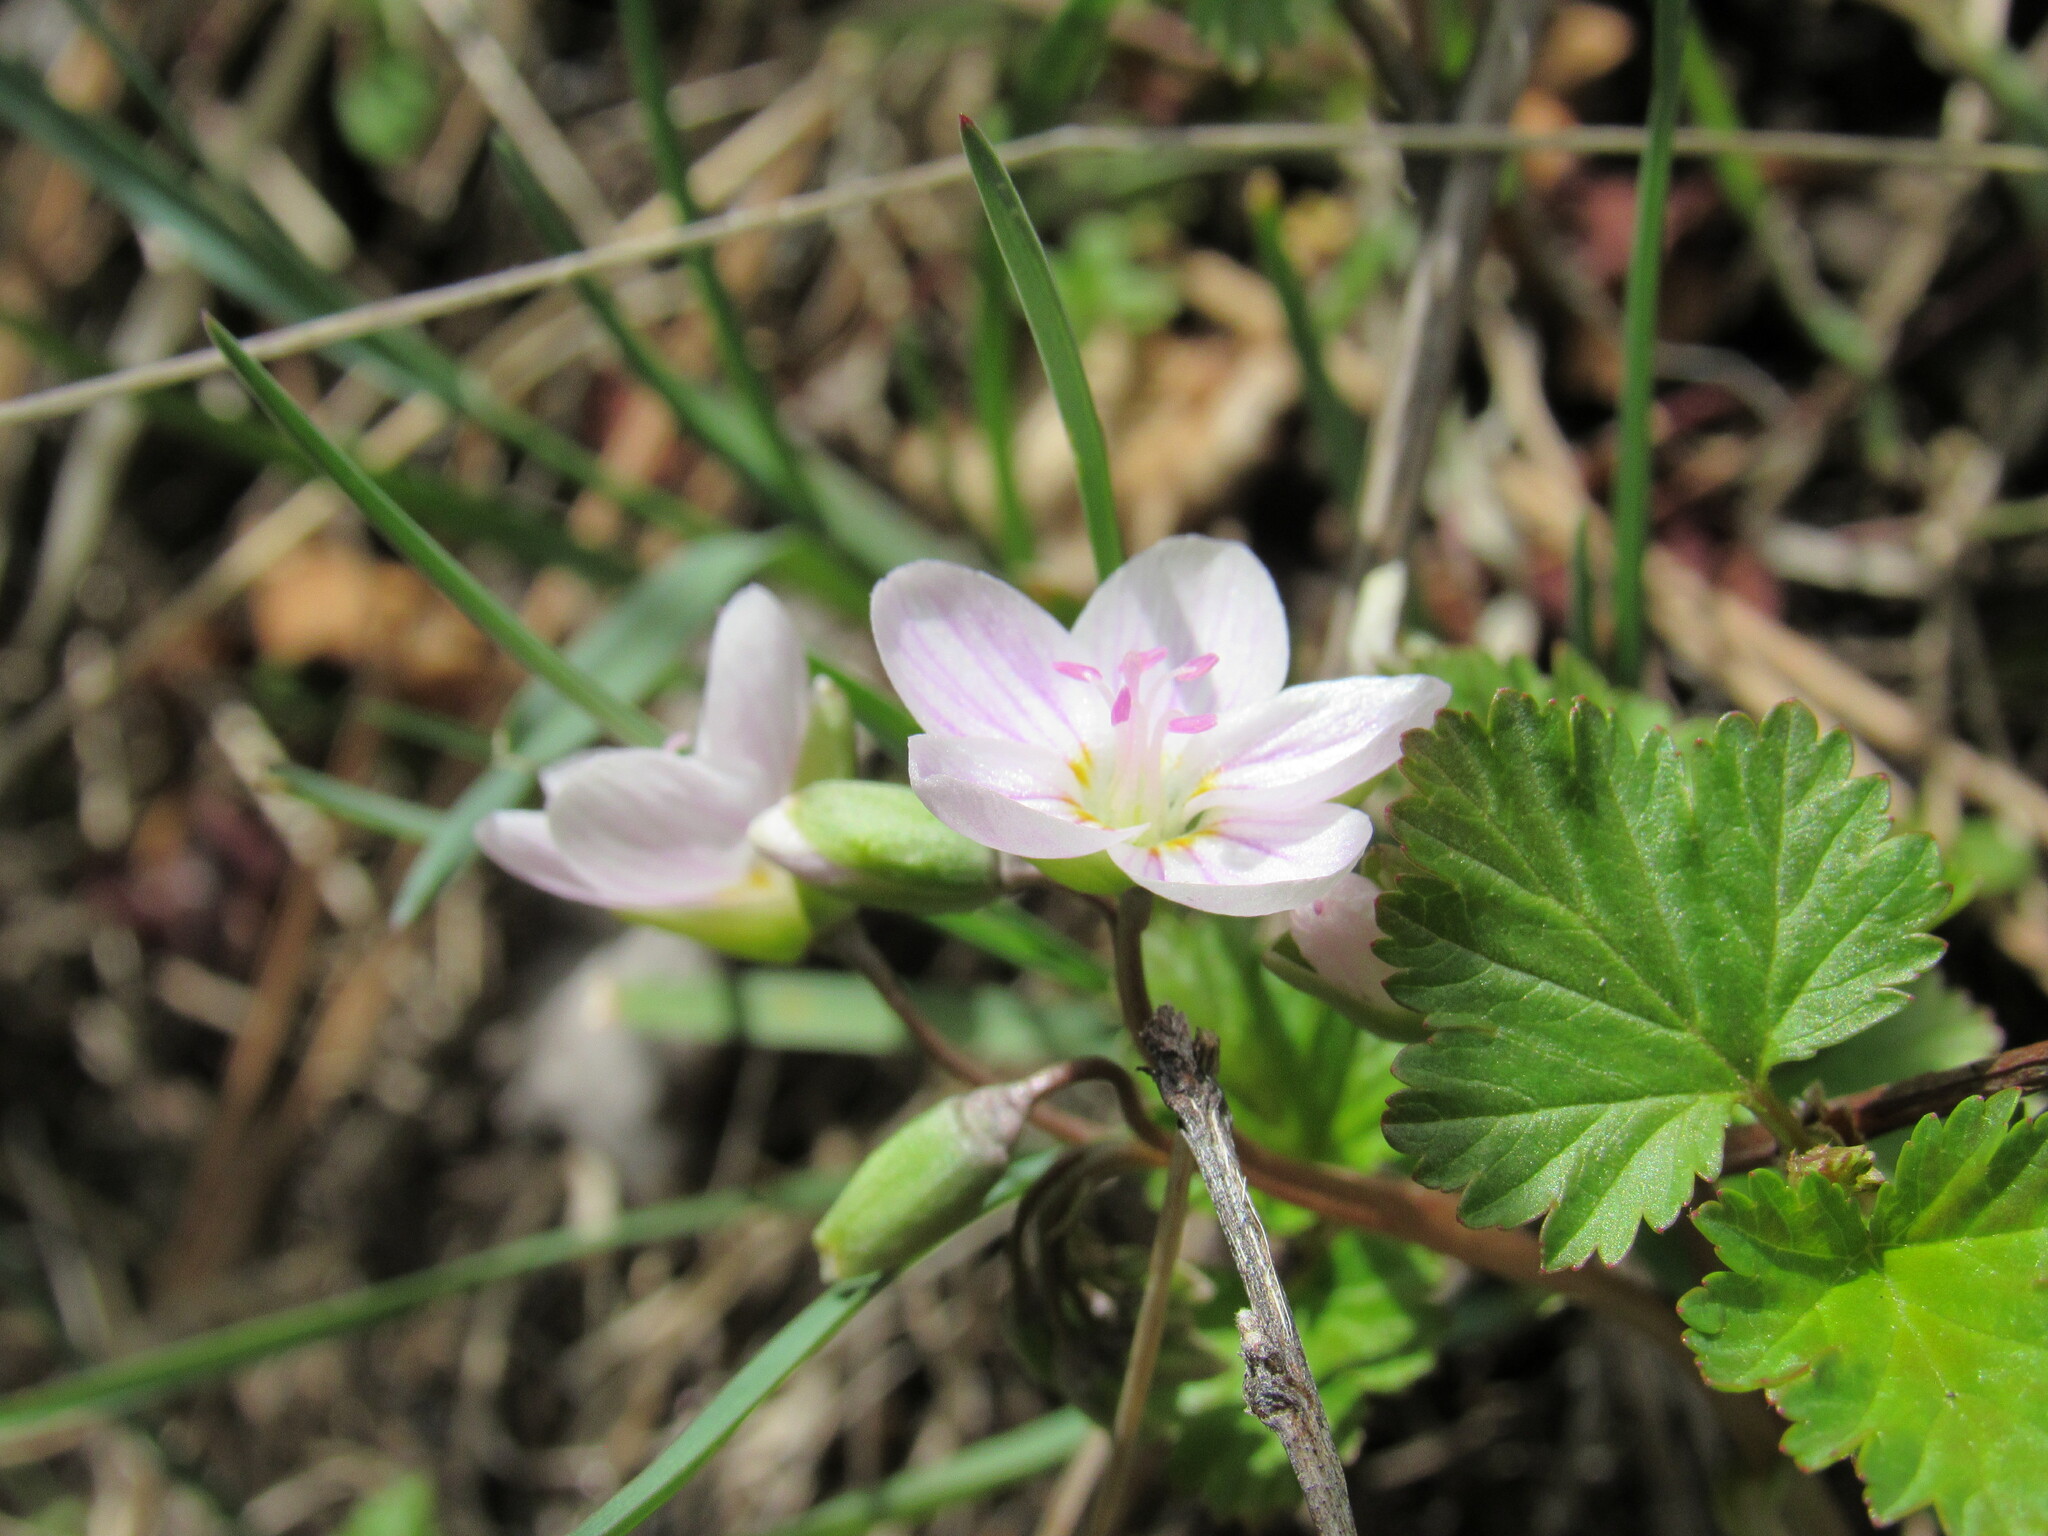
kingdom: Plantae
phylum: Tracheophyta
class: Magnoliopsida
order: Caryophyllales
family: Montiaceae
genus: Claytonia
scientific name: Claytonia rosea
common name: Rocky mountain spring-beauty
